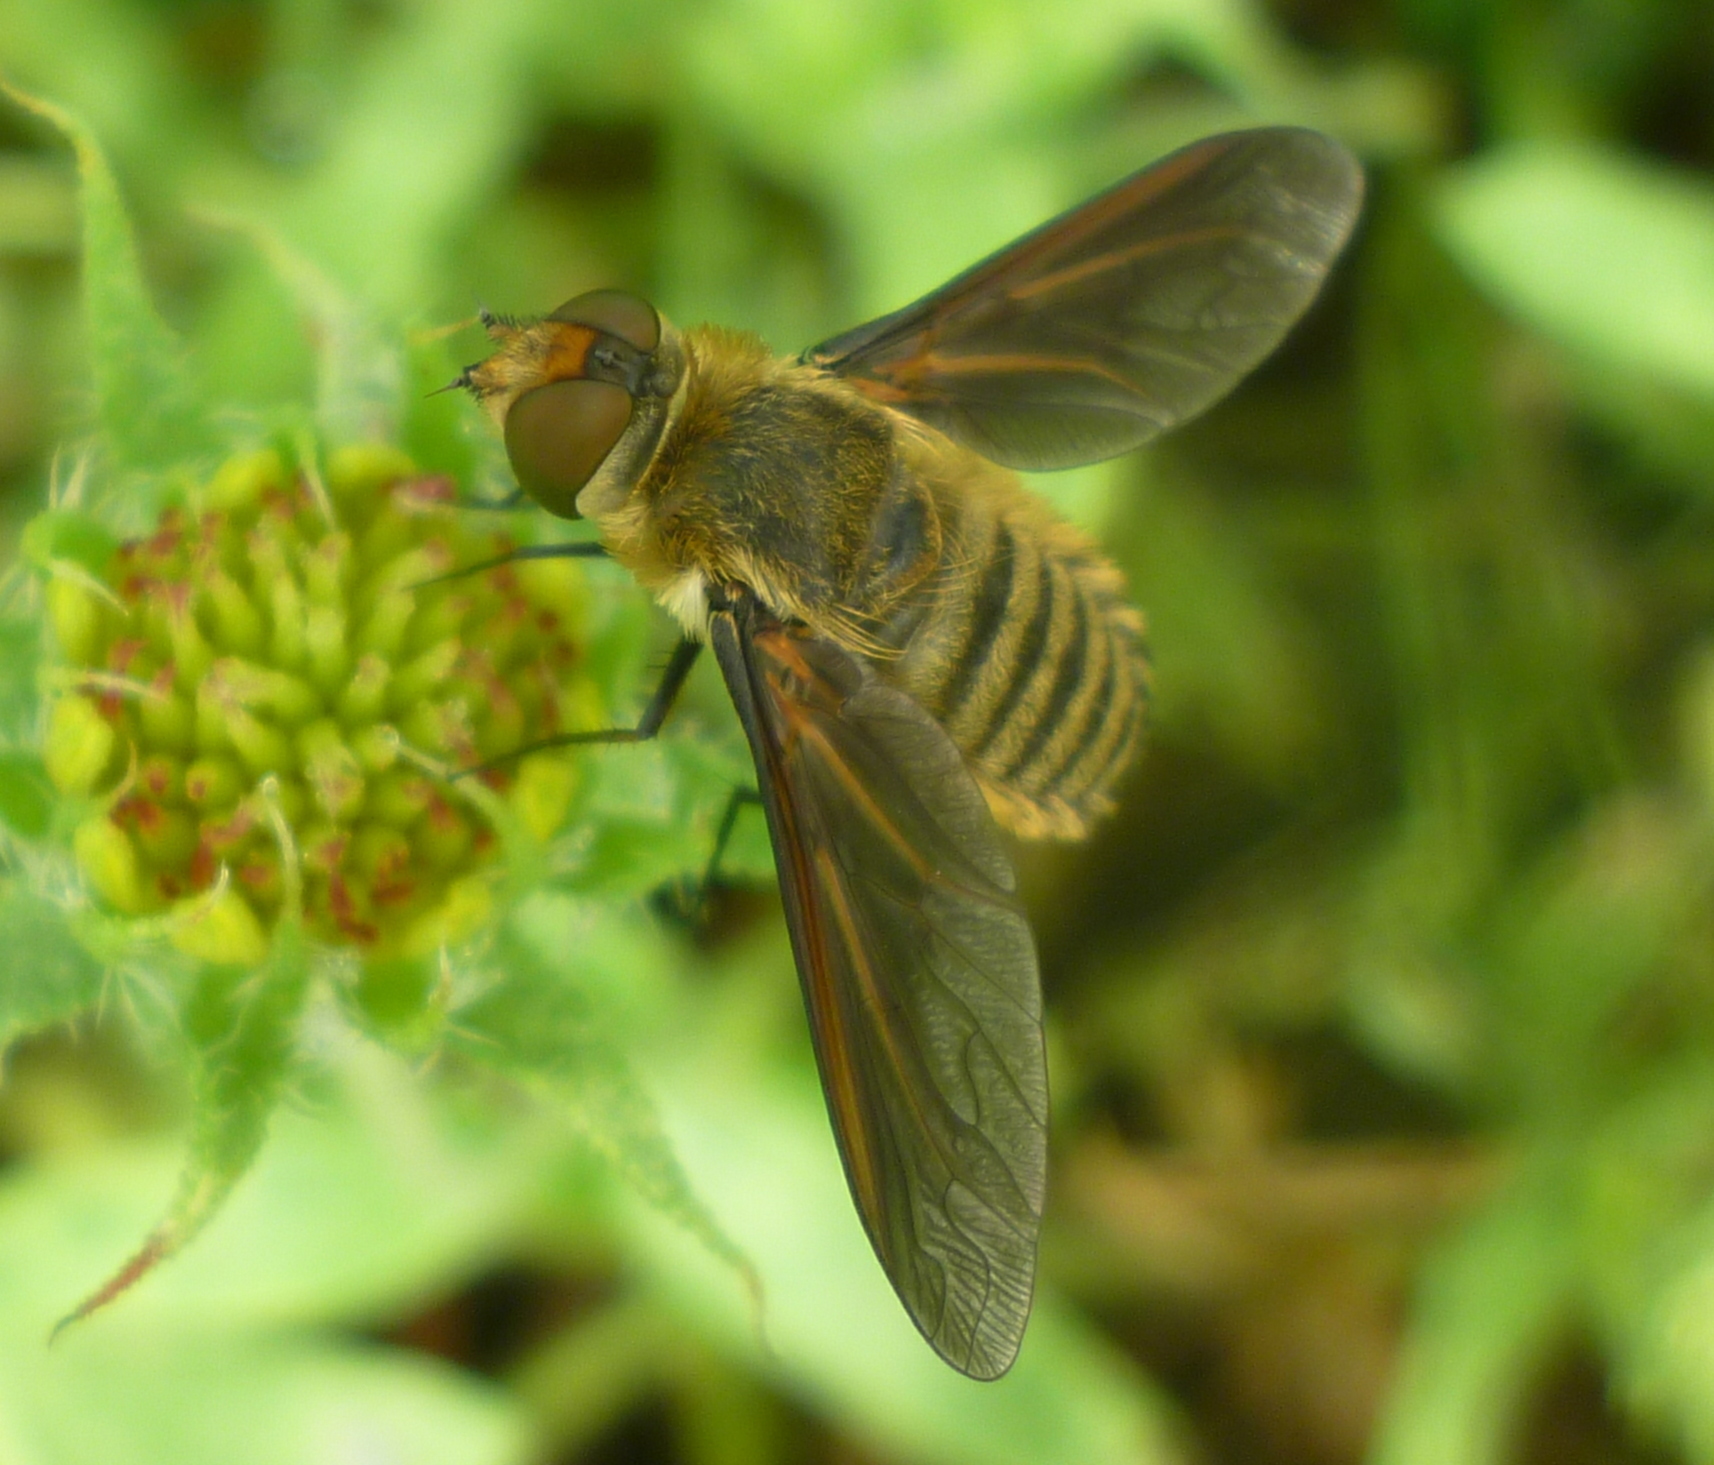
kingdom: Animalia
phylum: Arthropoda
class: Insecta
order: Diptera
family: Bombyliidae
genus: Poecilanthrax
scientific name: Poecilanthrax lucifer
